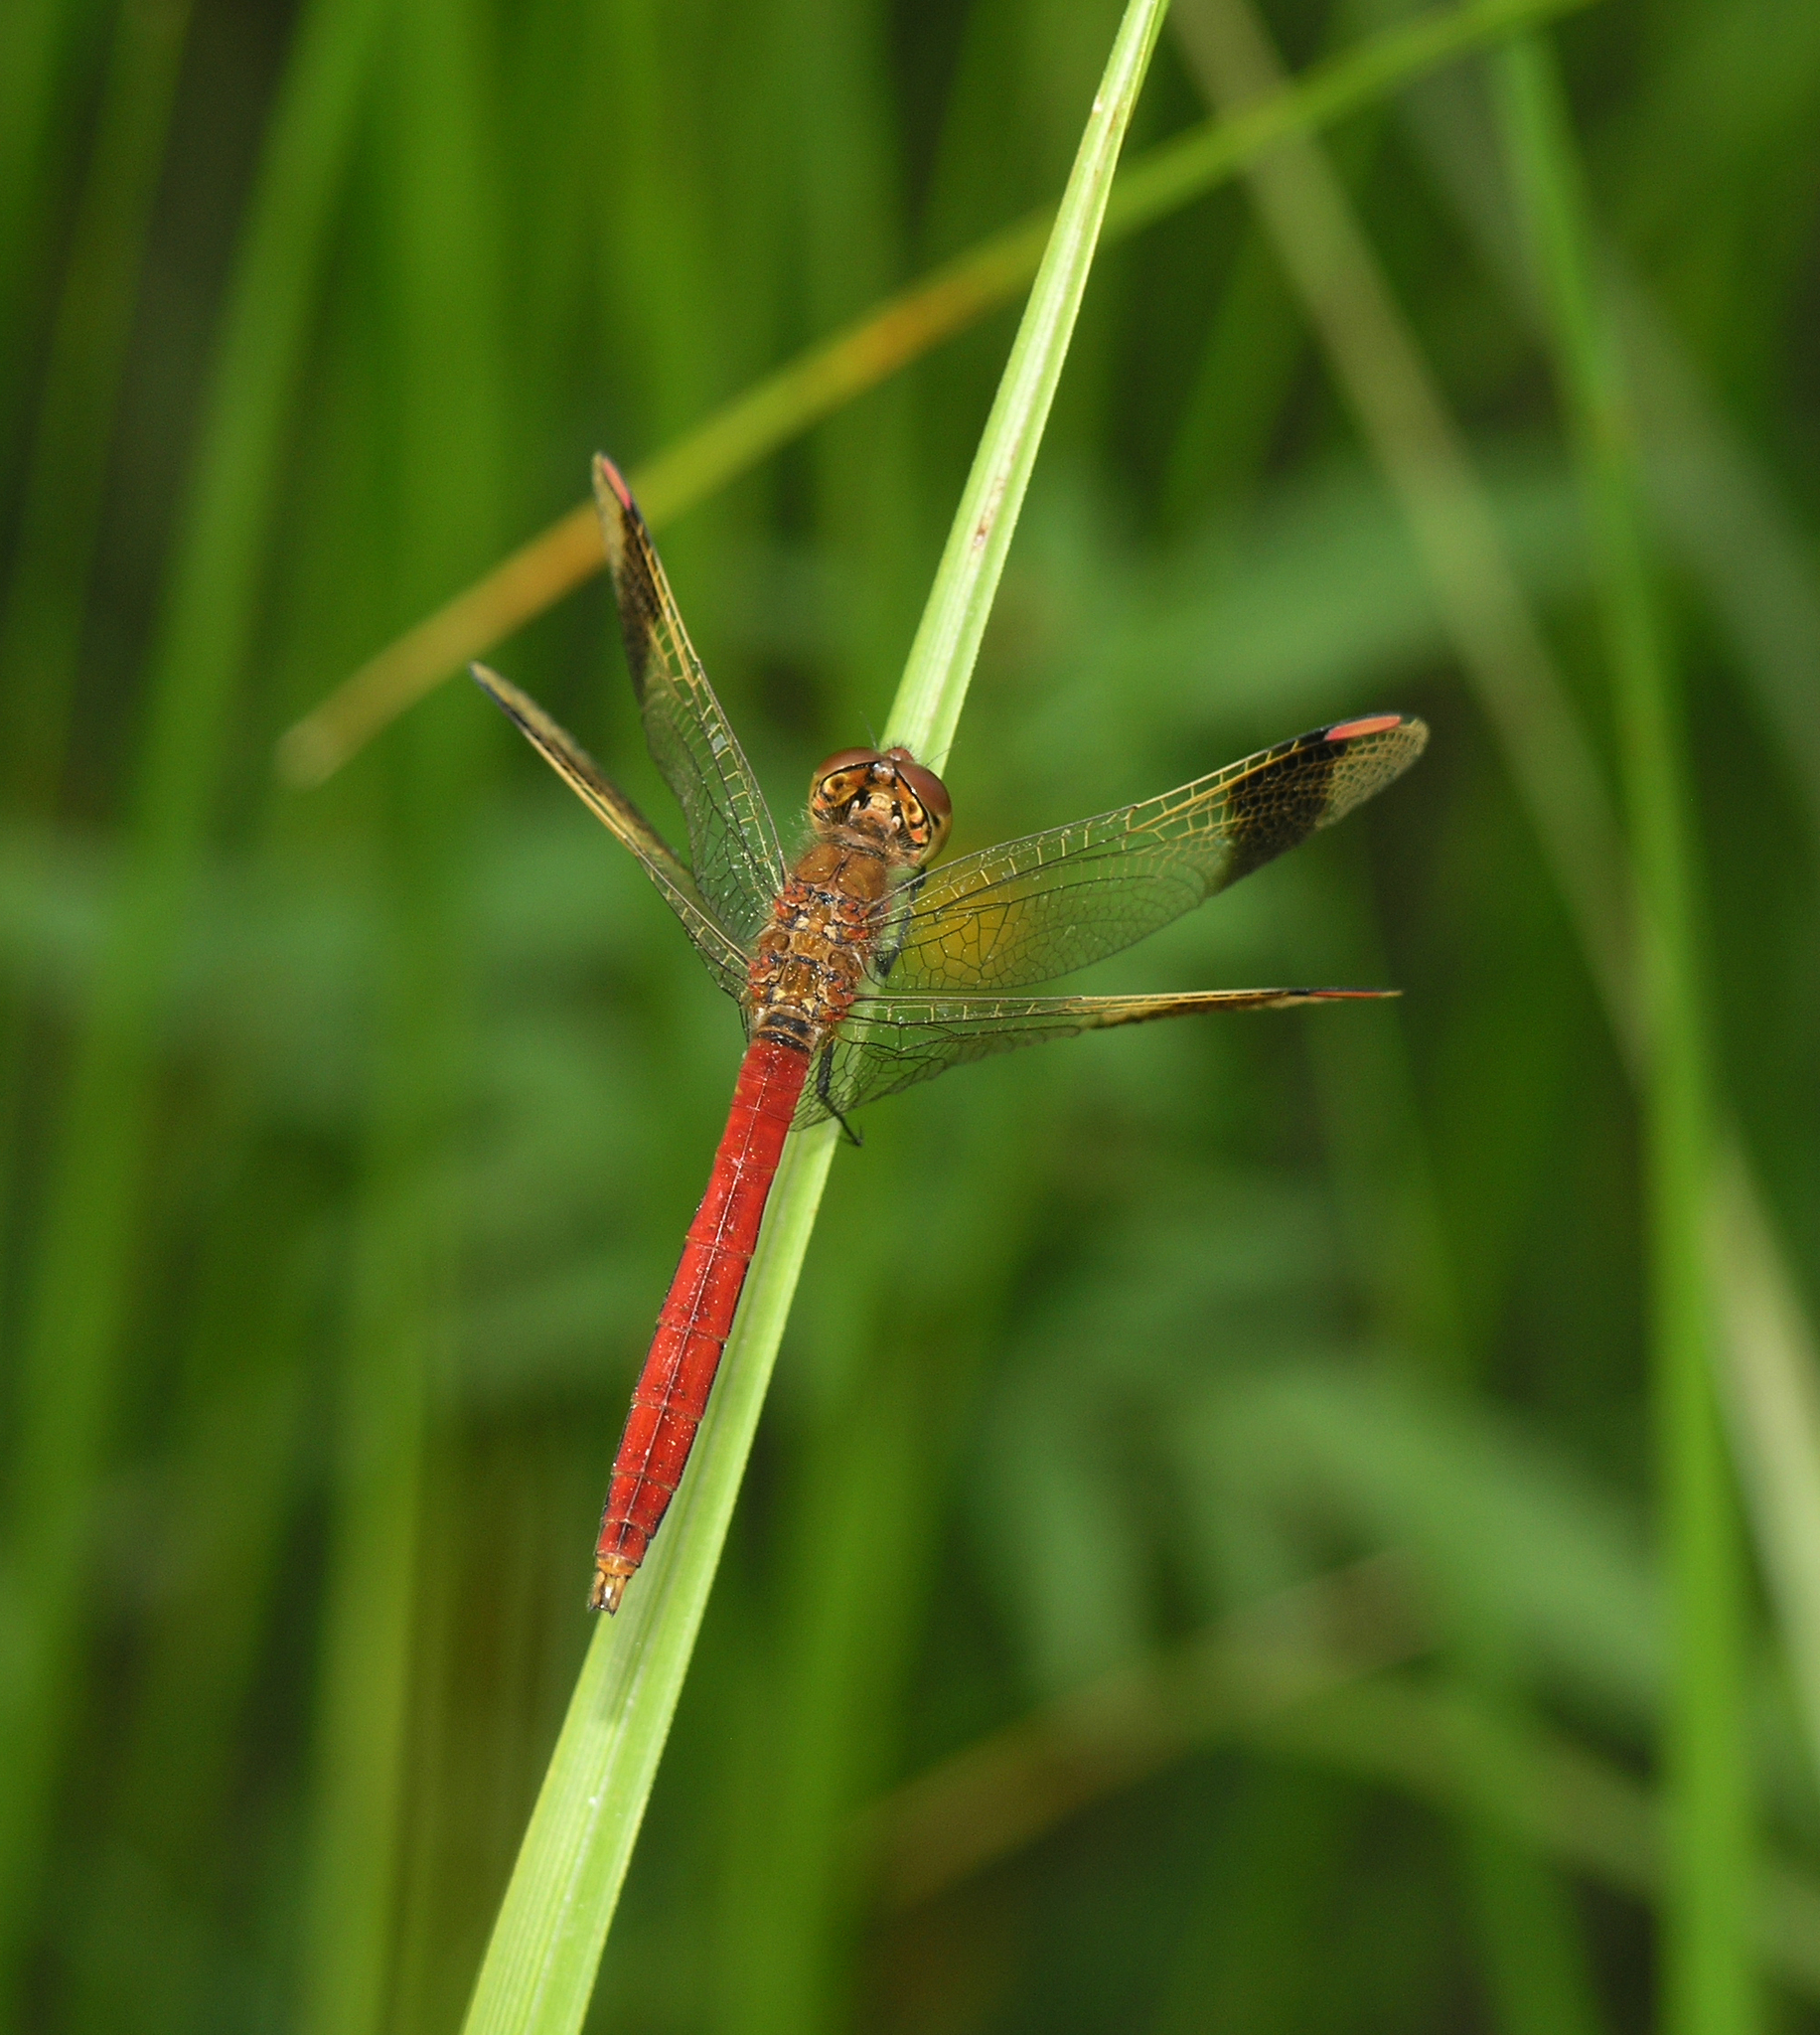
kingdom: Animalia
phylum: Arthropoda
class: Insecta
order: Odonata
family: Libellulidae
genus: Sympetrum
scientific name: Sympetrum pedemontanum
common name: Banded darter
